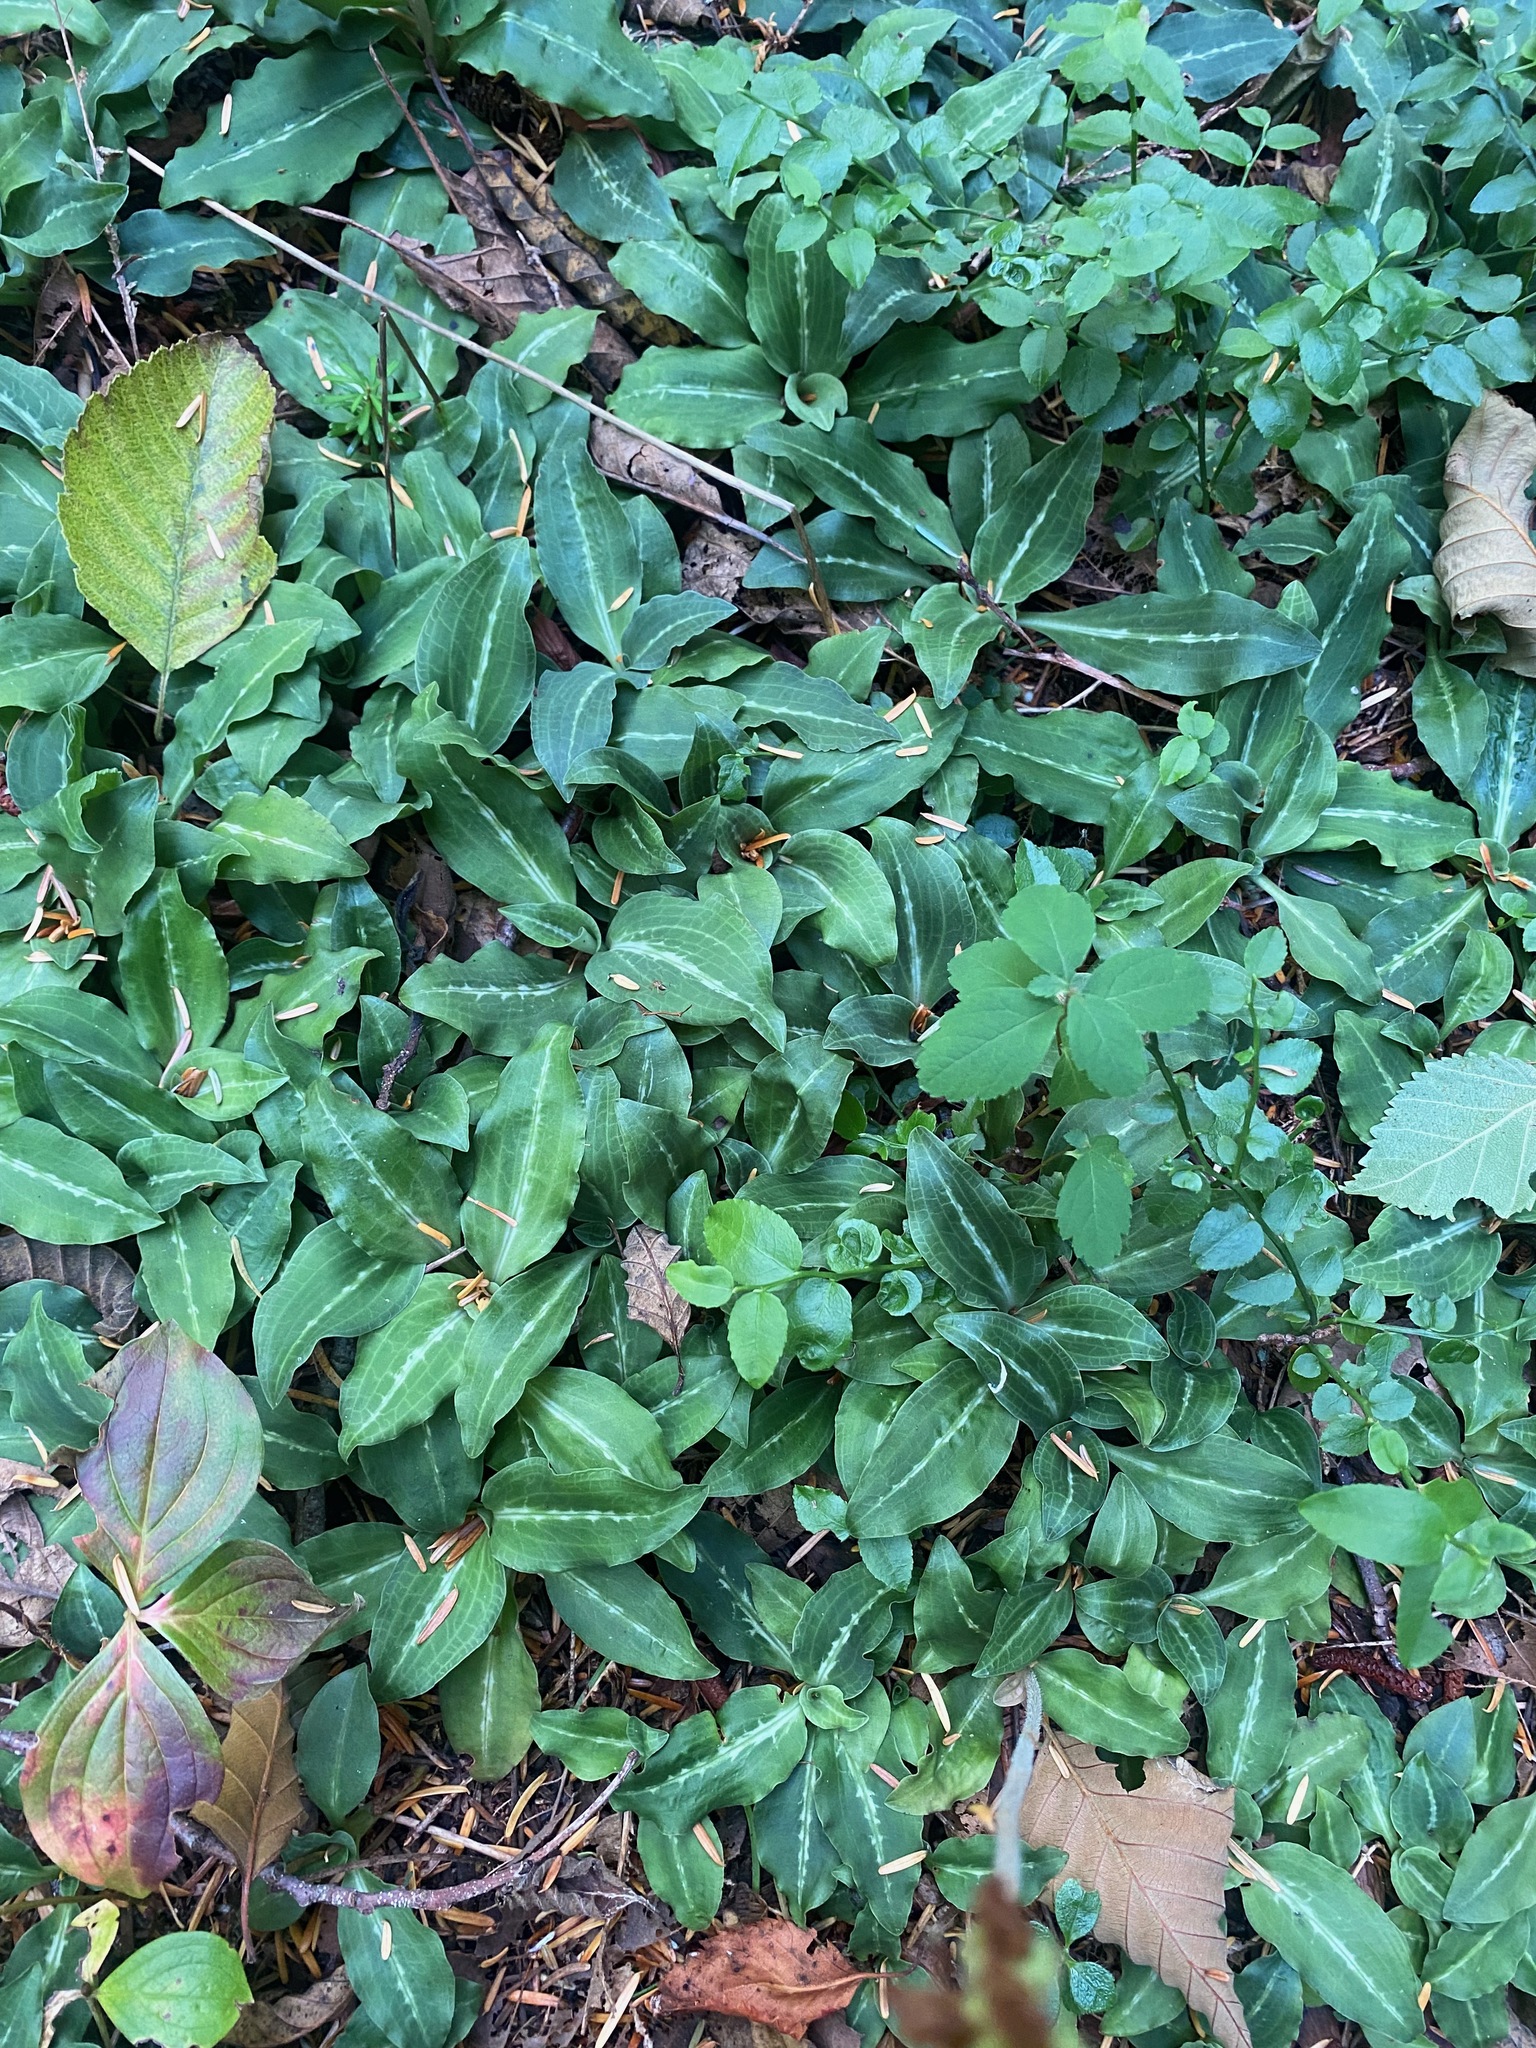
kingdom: Plantae
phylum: Tracheophyta
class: Liliopsida
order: Asparagales
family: Orchidaceae
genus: Goodyera
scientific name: Goodyera oblongifolia
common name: Giant rattlesnake-plantain
